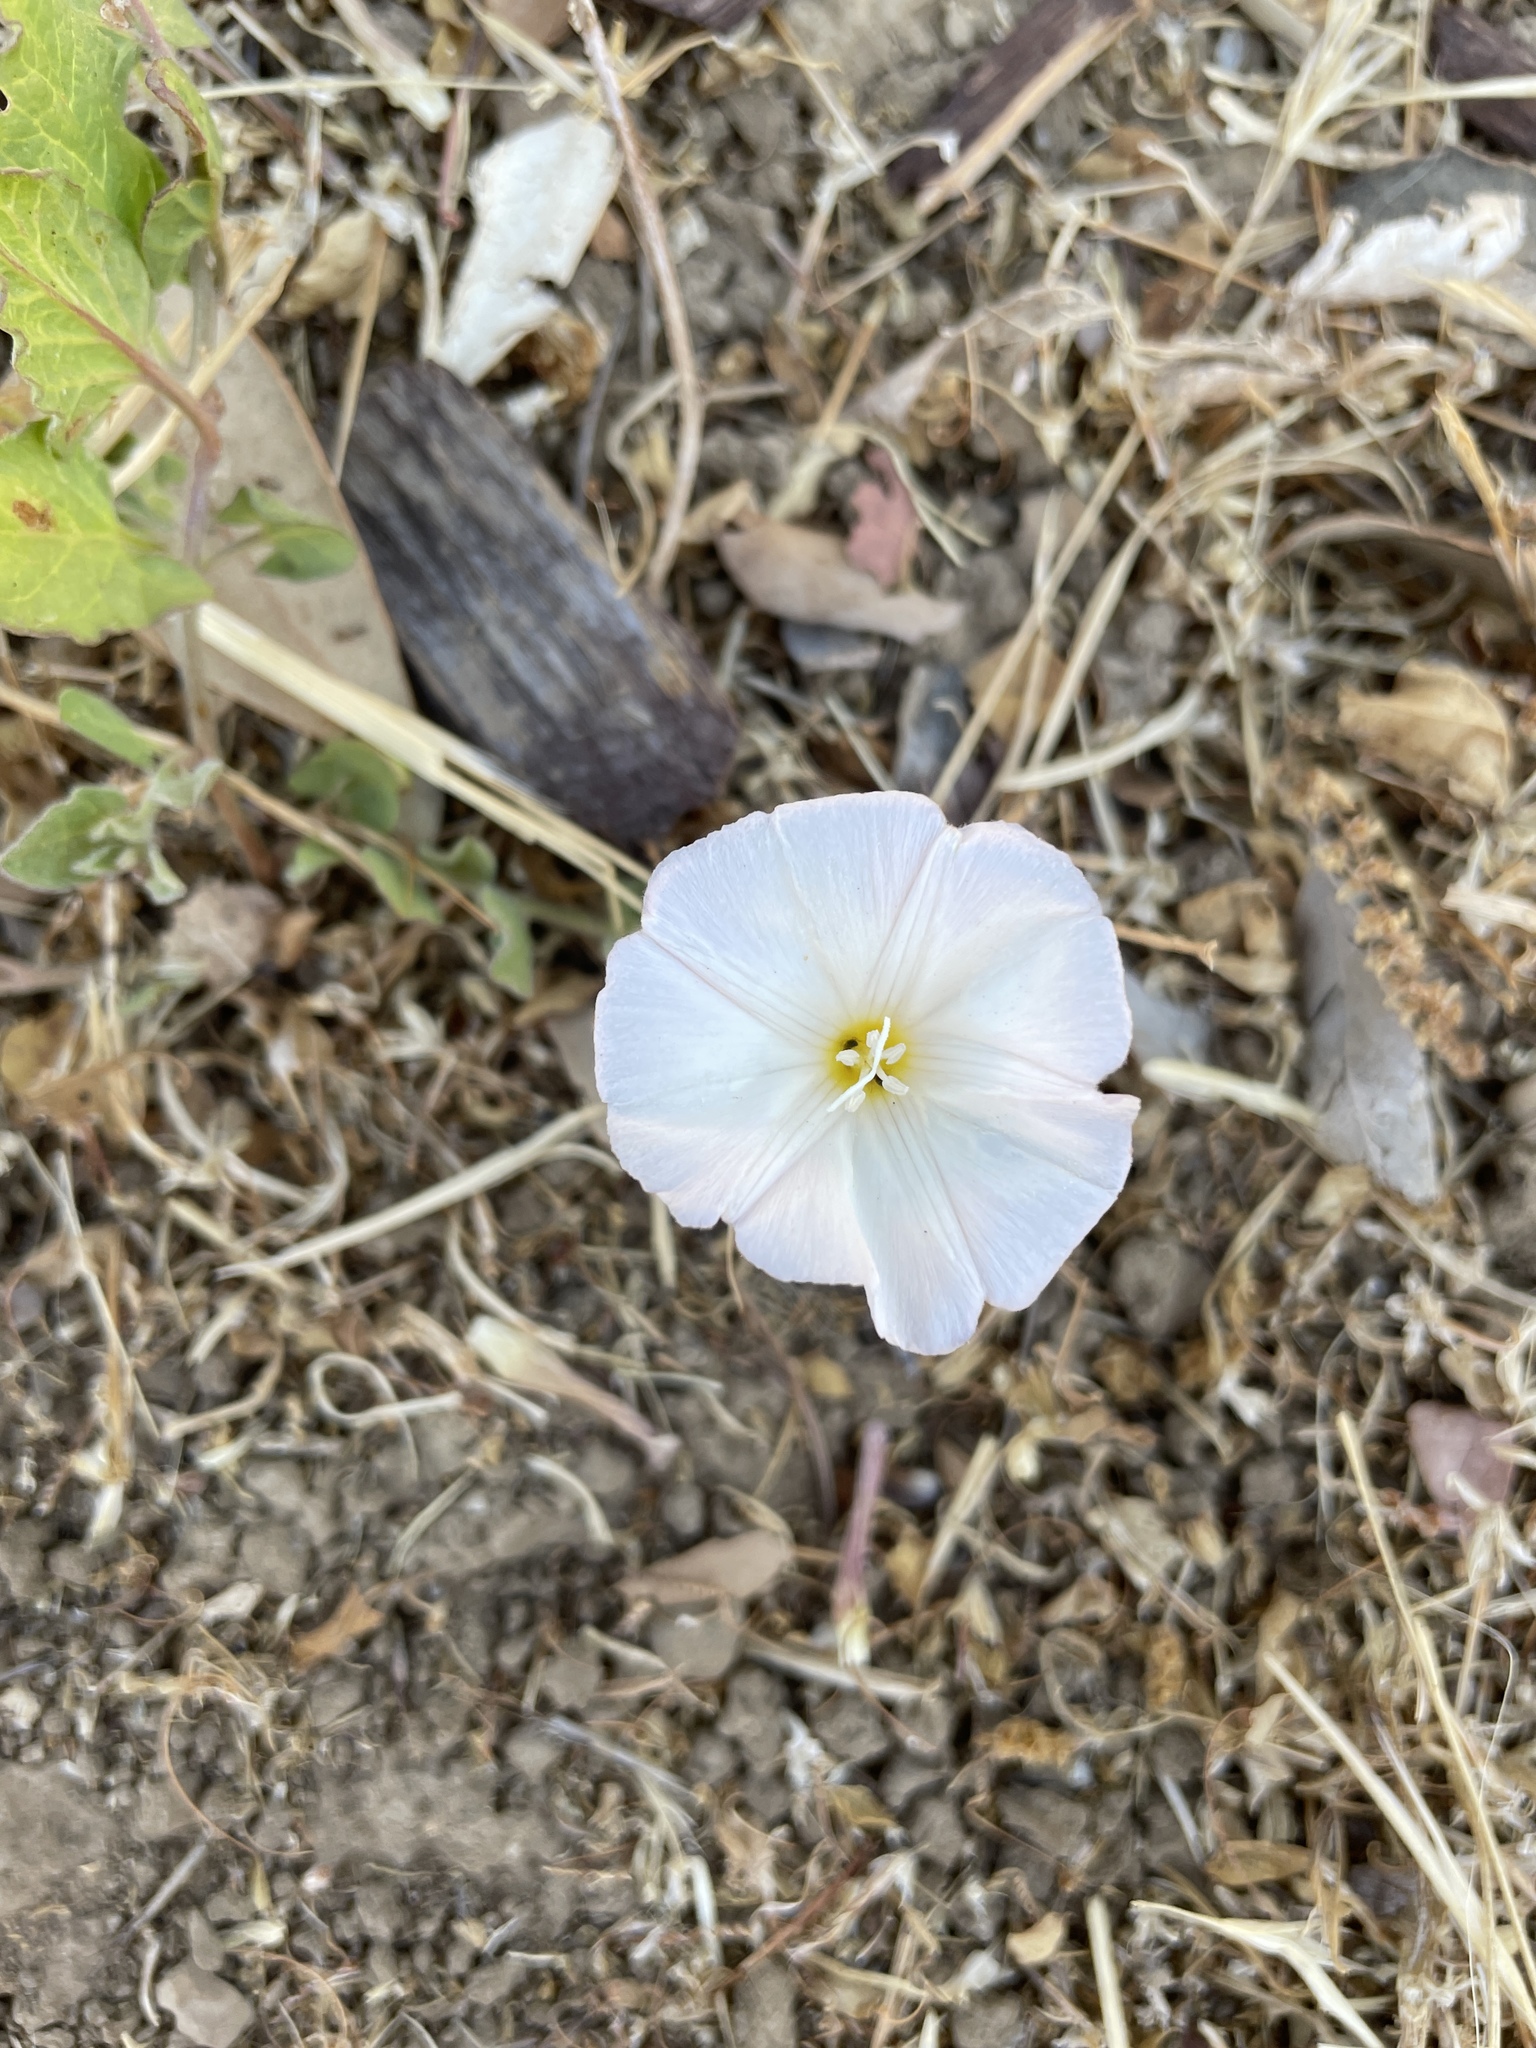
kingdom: Plantae
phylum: Tracheophyta
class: Magnoliopsida
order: Solanales
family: Convolvulaceae
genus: Convolvulus
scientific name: Convolvulus arvensis
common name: Field bindweed
